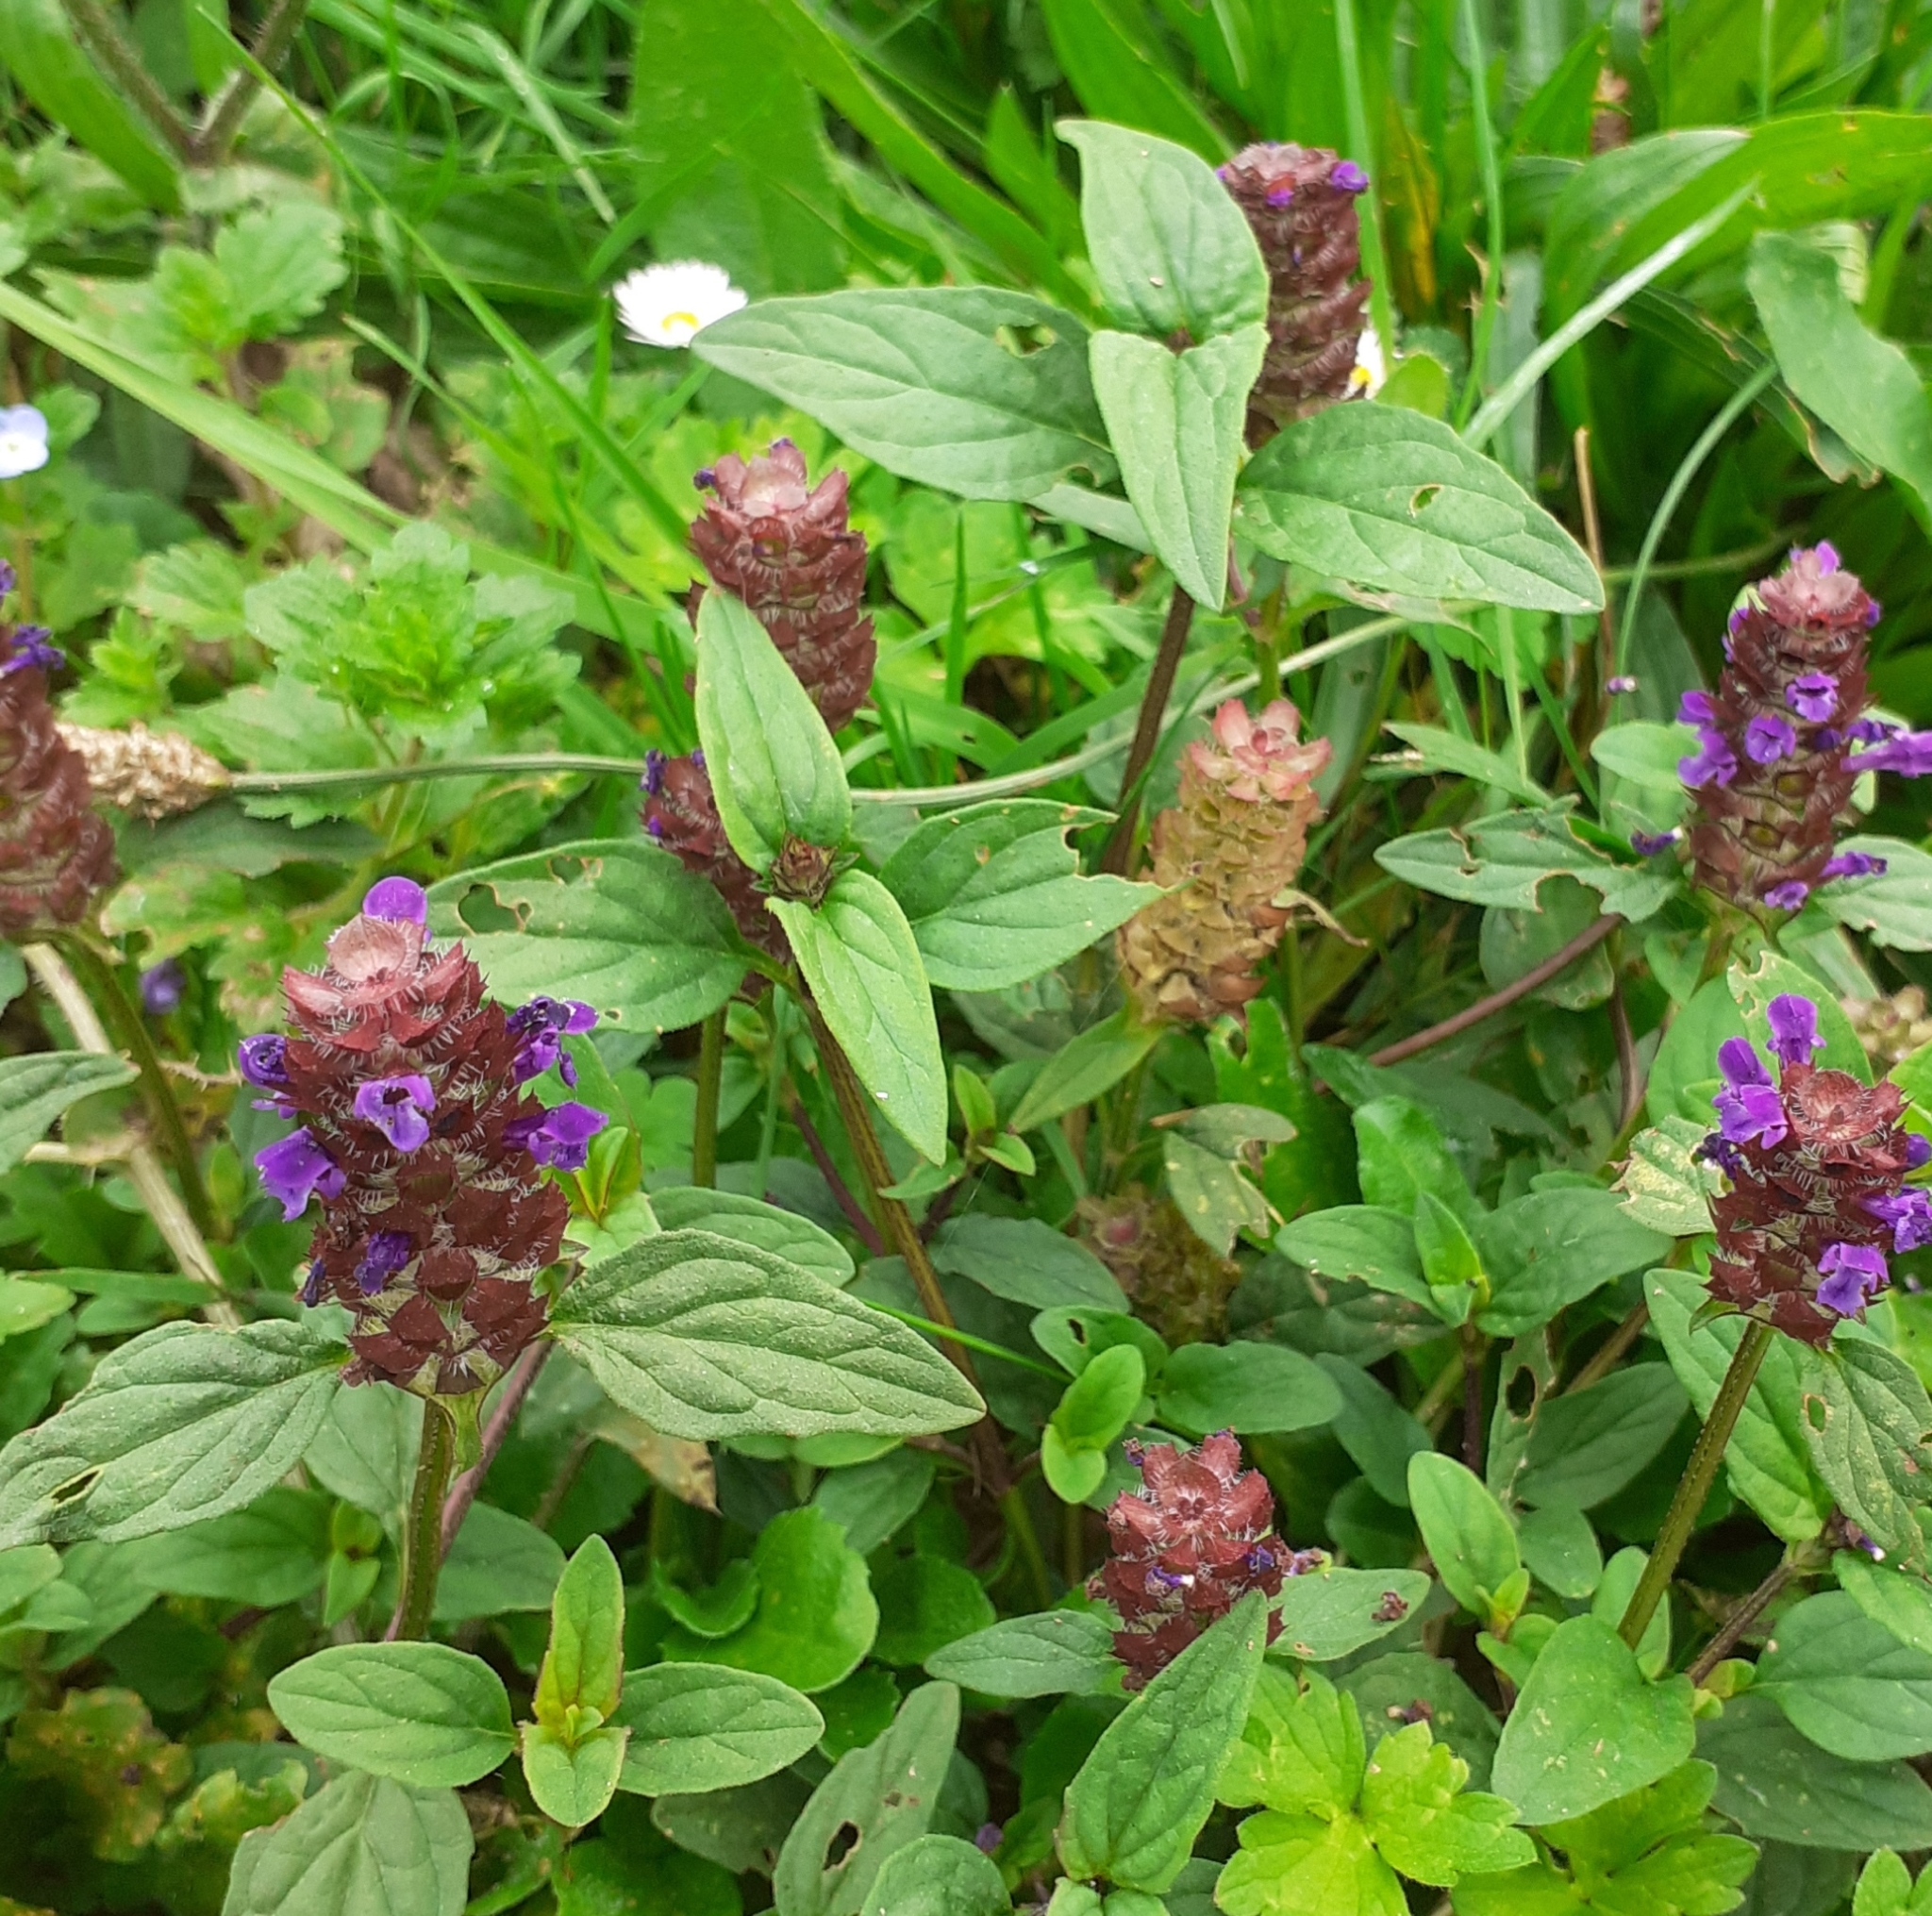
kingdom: Plantae
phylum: Tracheophyta
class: Magnoliopsida
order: Lamiales
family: Lamiaceae
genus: Prunella
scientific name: Prunella vulgaris
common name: Heal-all
